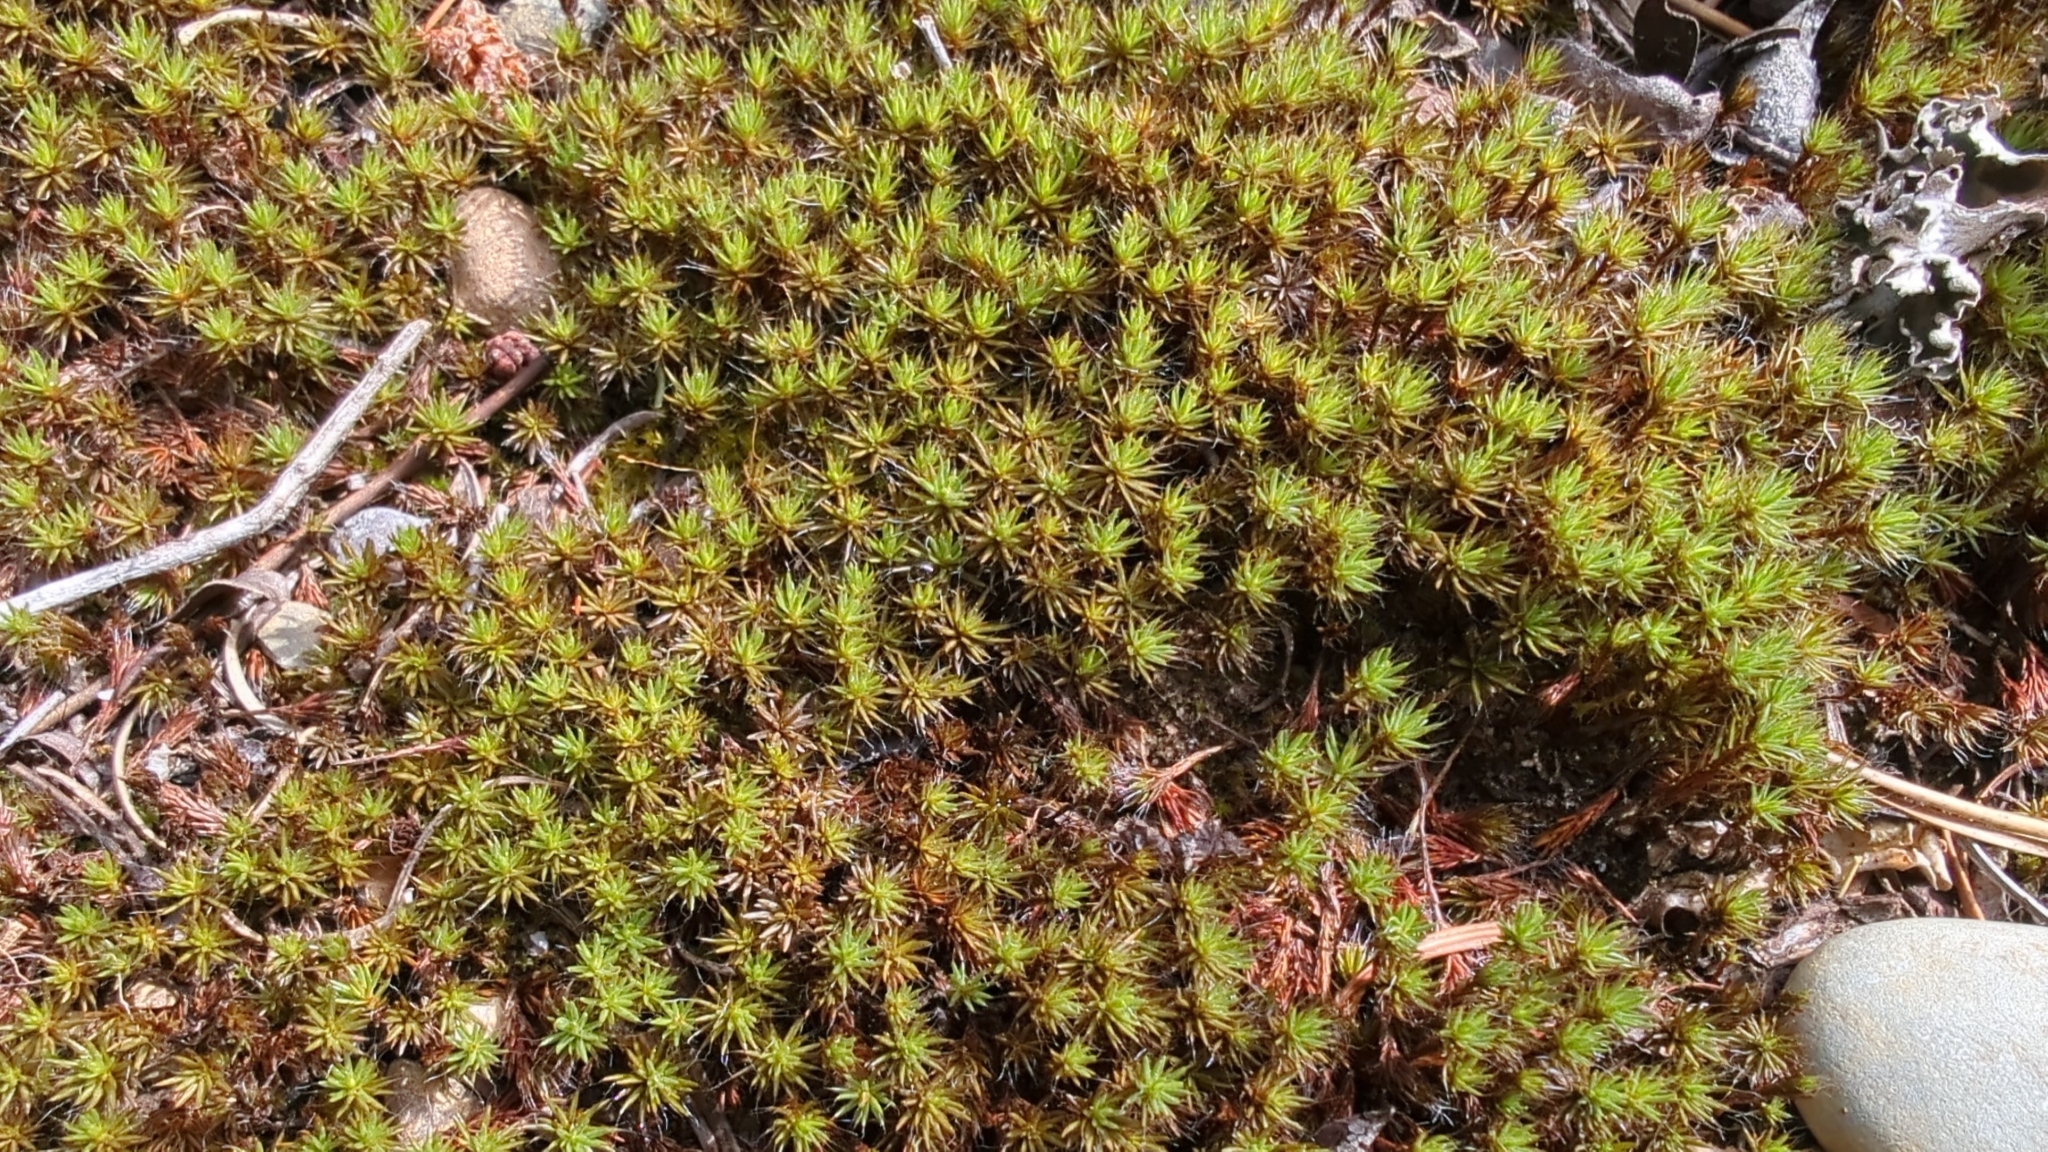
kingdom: Plantae
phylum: Bryophyta
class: Polytrichopsida
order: Polytrichales
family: Polytrichaceae
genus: Polytrichum
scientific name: Polytrichum piliferum
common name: Bristly haircap
